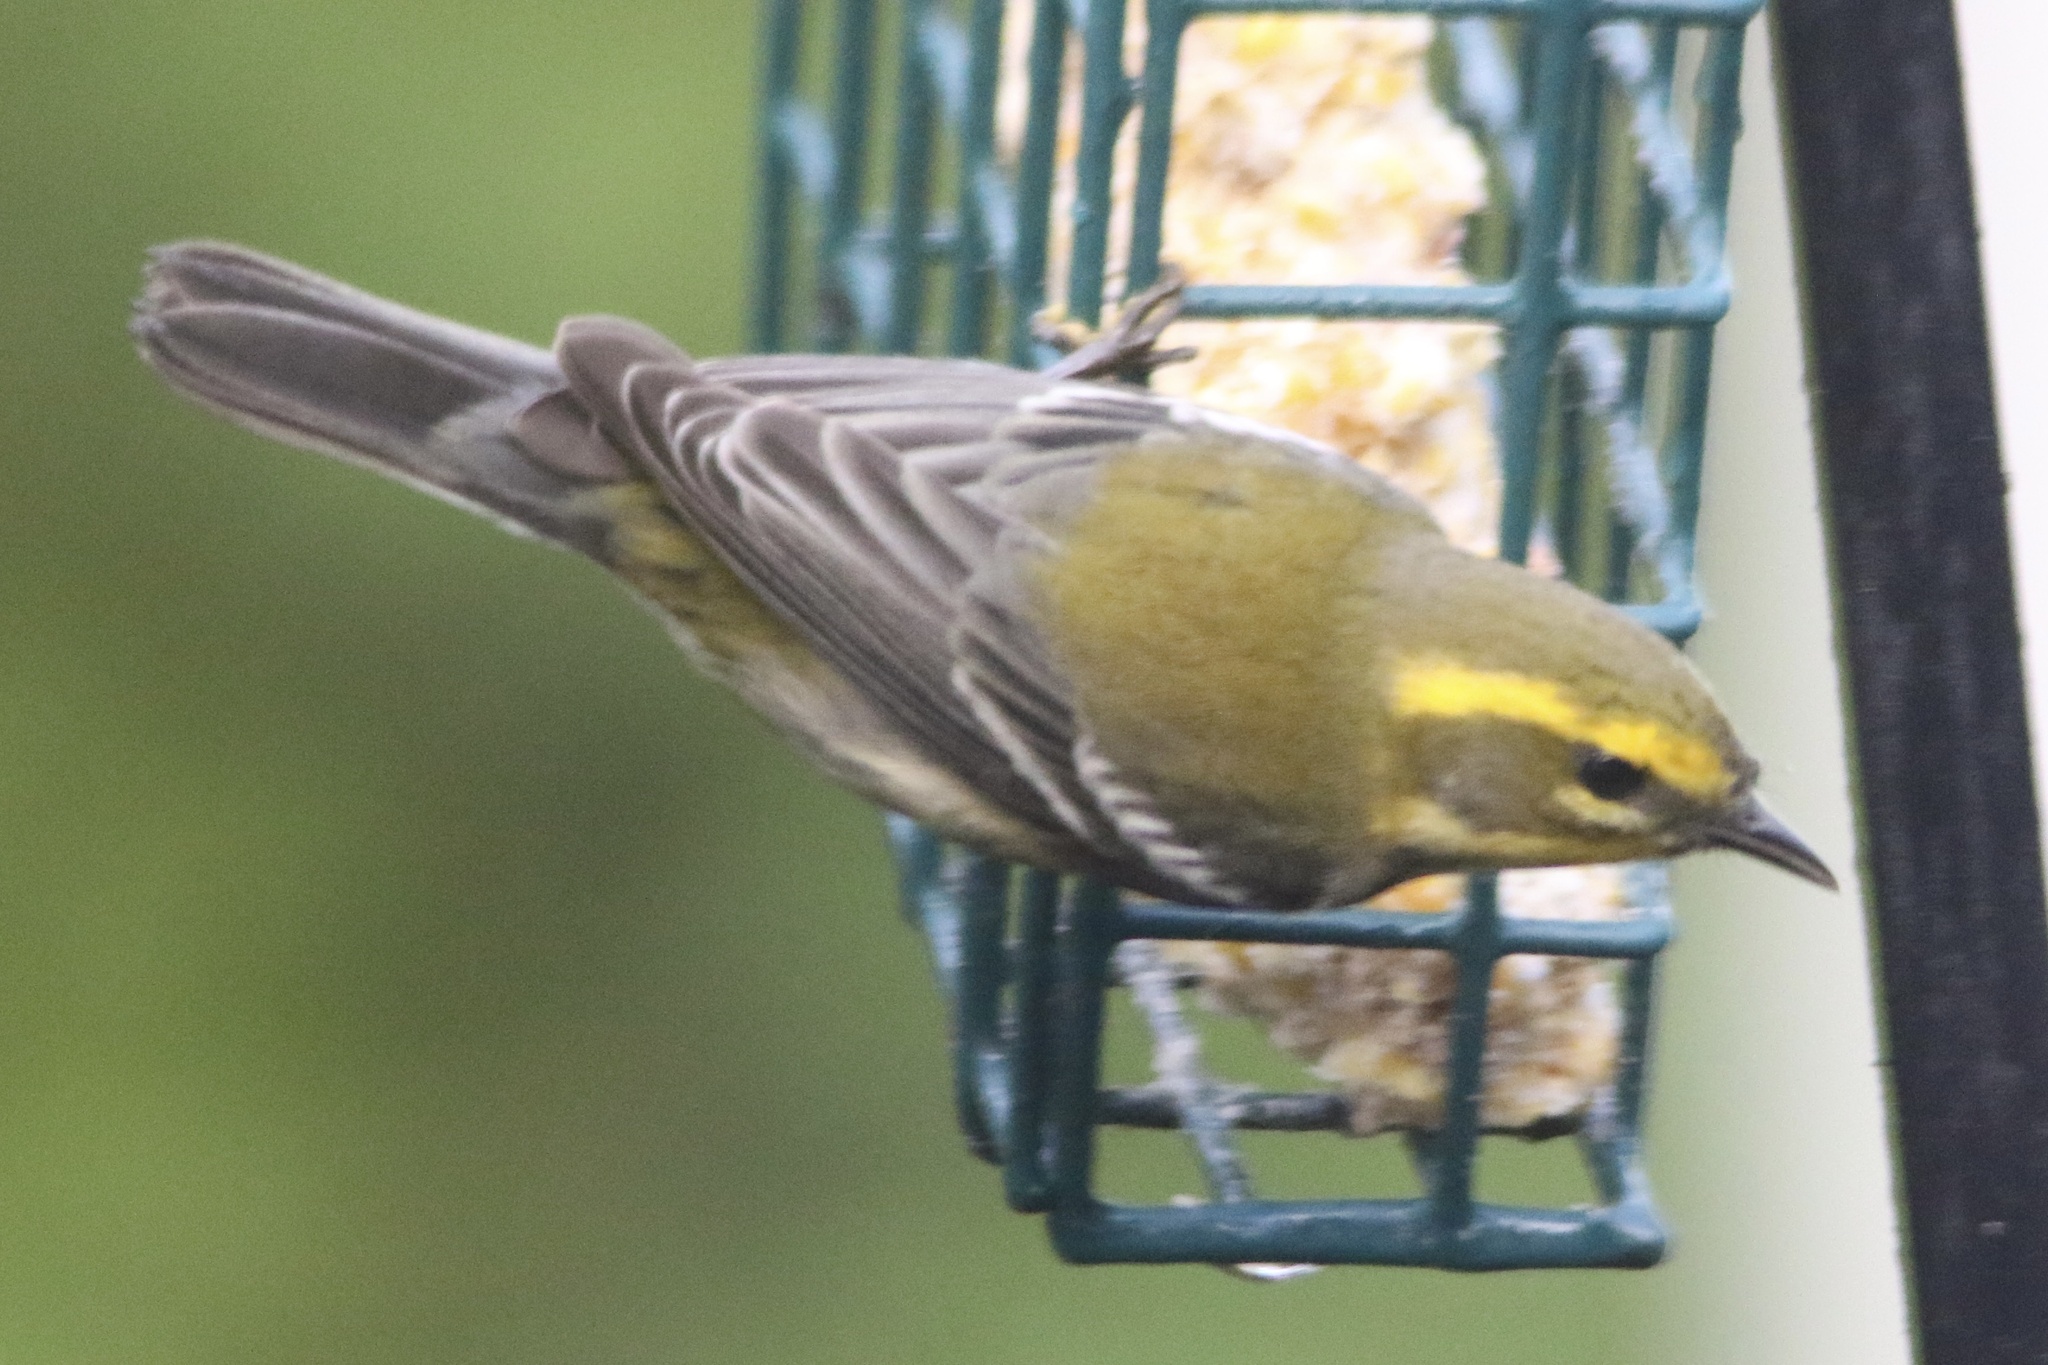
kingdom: Animalia
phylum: Chordata
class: Aves
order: Passeriformes
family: Parulidae
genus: Setophaga
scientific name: Setophaga townsendi
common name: Townsend's warbler
